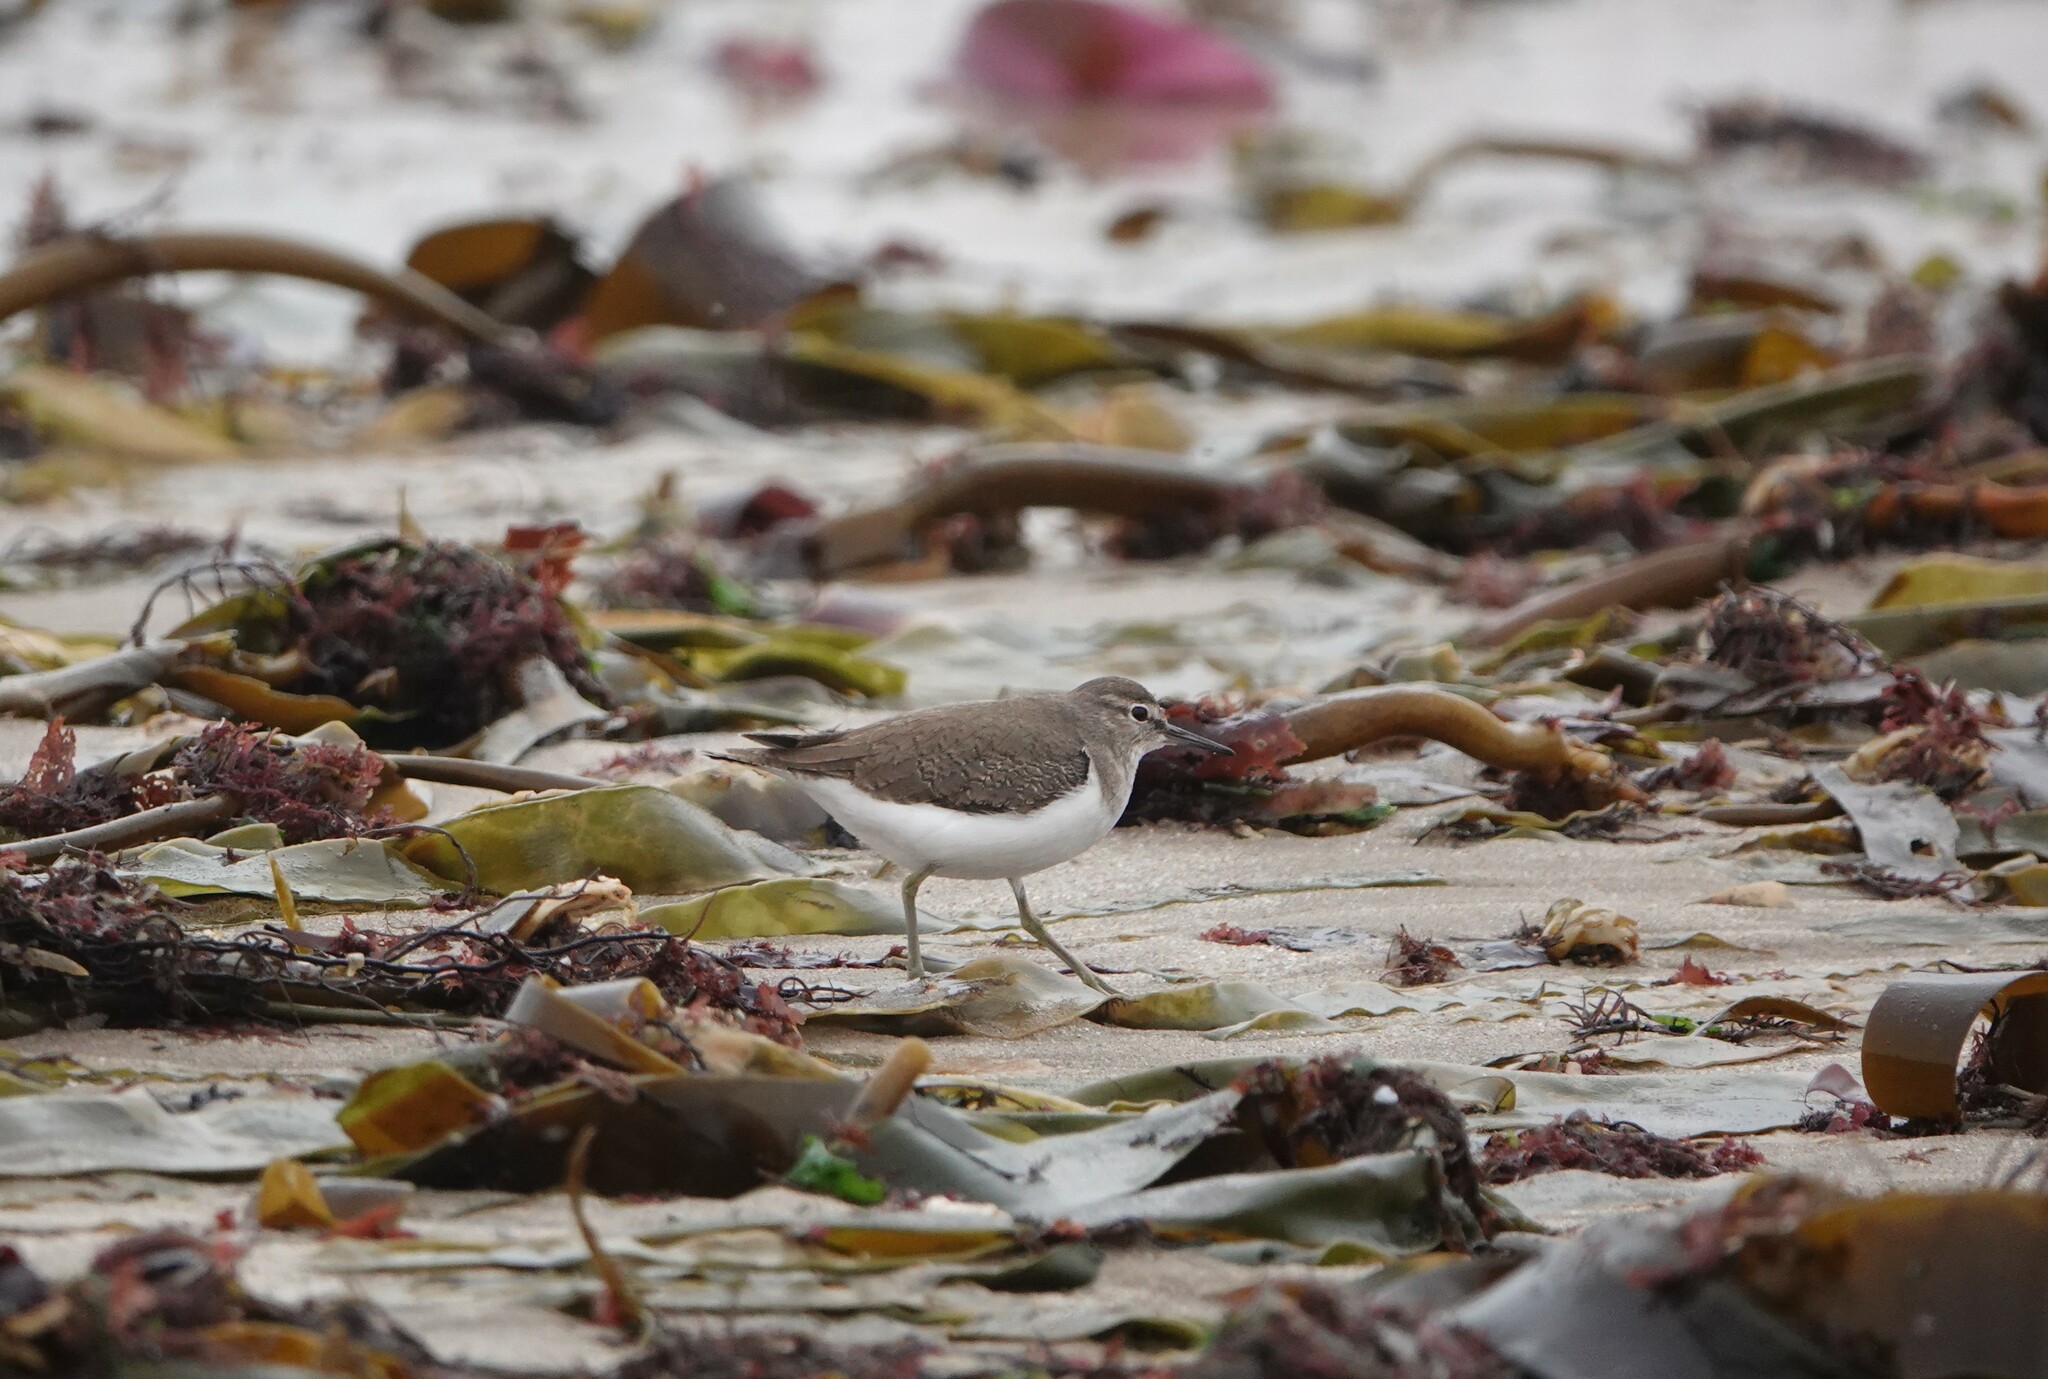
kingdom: Animalia
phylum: Chordata
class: Aves
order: Charadriiformes
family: Scolopacidae
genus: Actitis
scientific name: Actitis hypoleucos
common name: Common sandpiper
